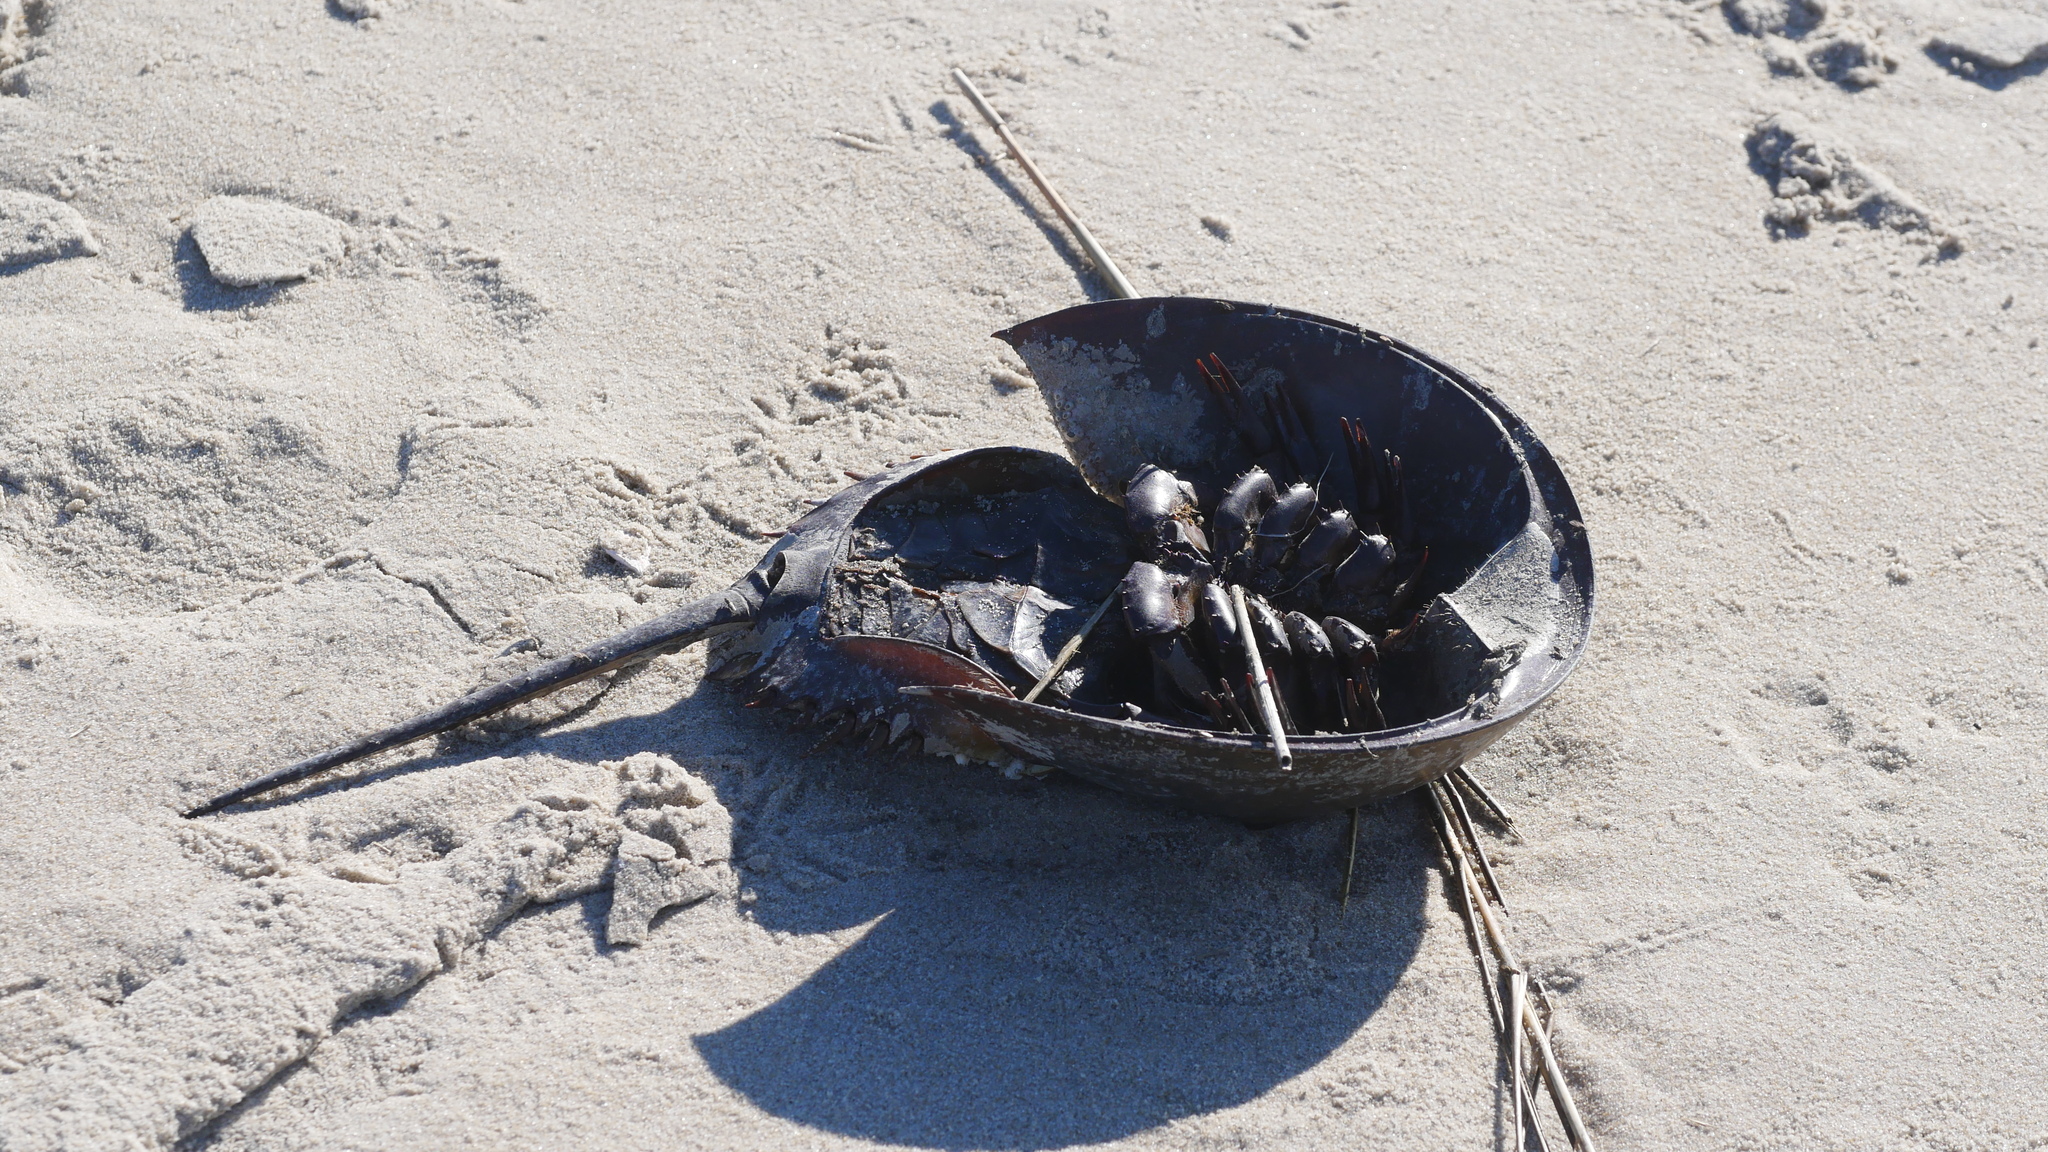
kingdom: Animalia
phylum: Arthropoda
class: Merostomata
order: Xiphosurida
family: Limulidae
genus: Limulus
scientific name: Limulus polyphemus
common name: Horseshoe crab
